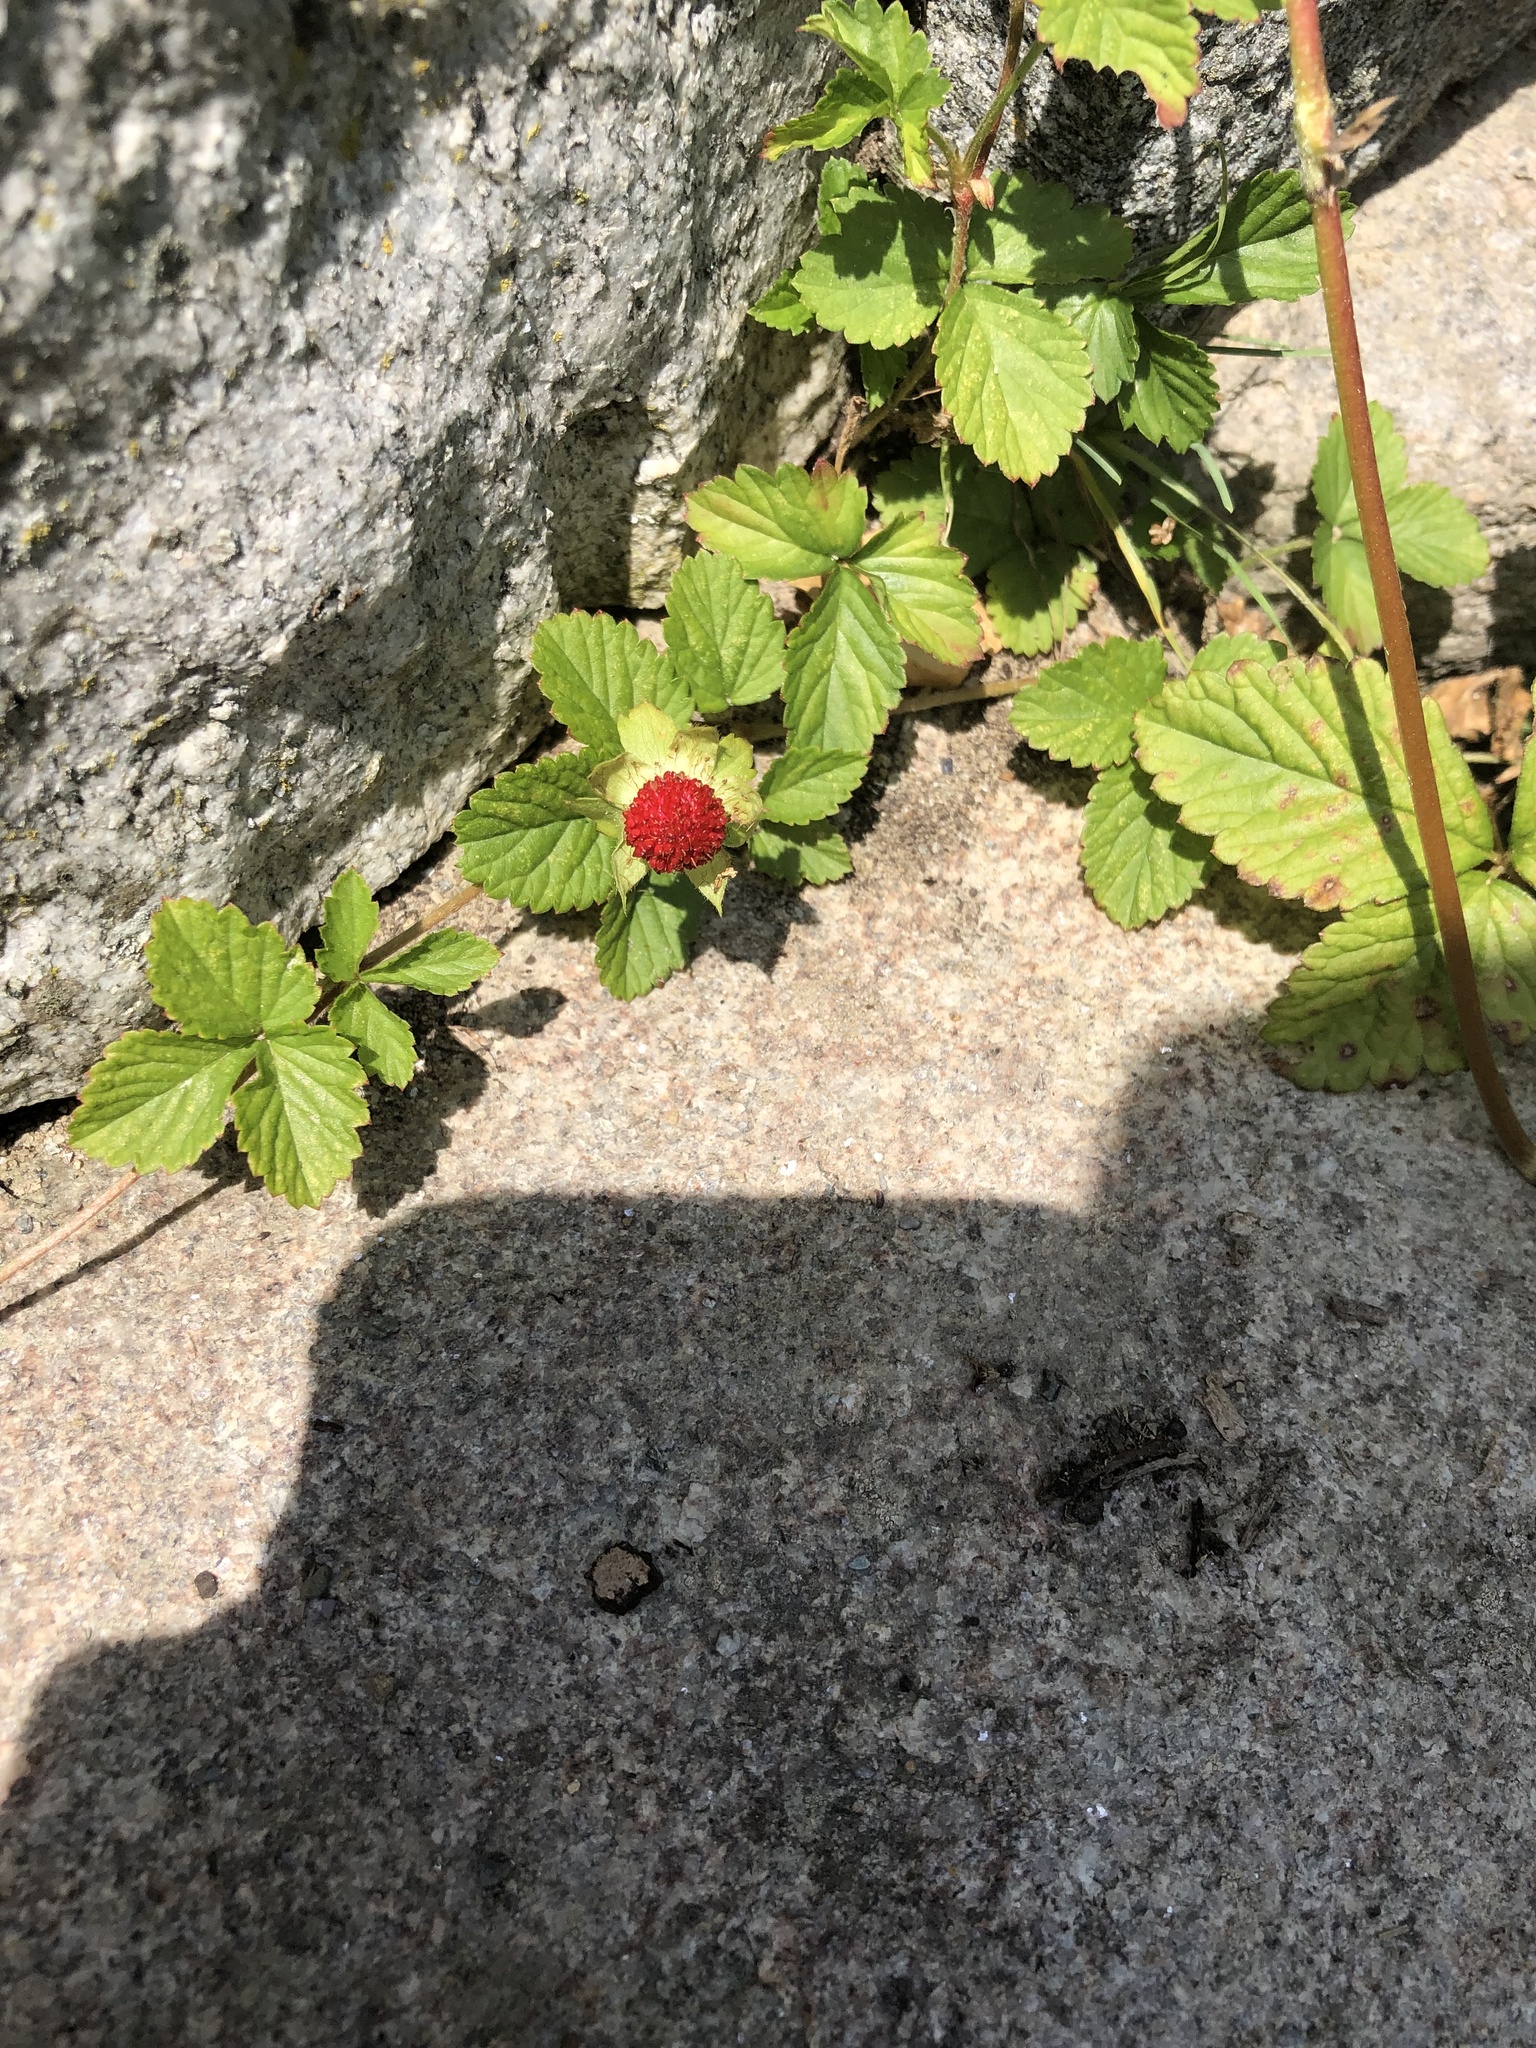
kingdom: Plantae
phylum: Tracheophyta
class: Magnoliopsida
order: Rosales
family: Rosaceae
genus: Potentilla
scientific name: Potentilla indica
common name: Yellow-flowered strawberry
